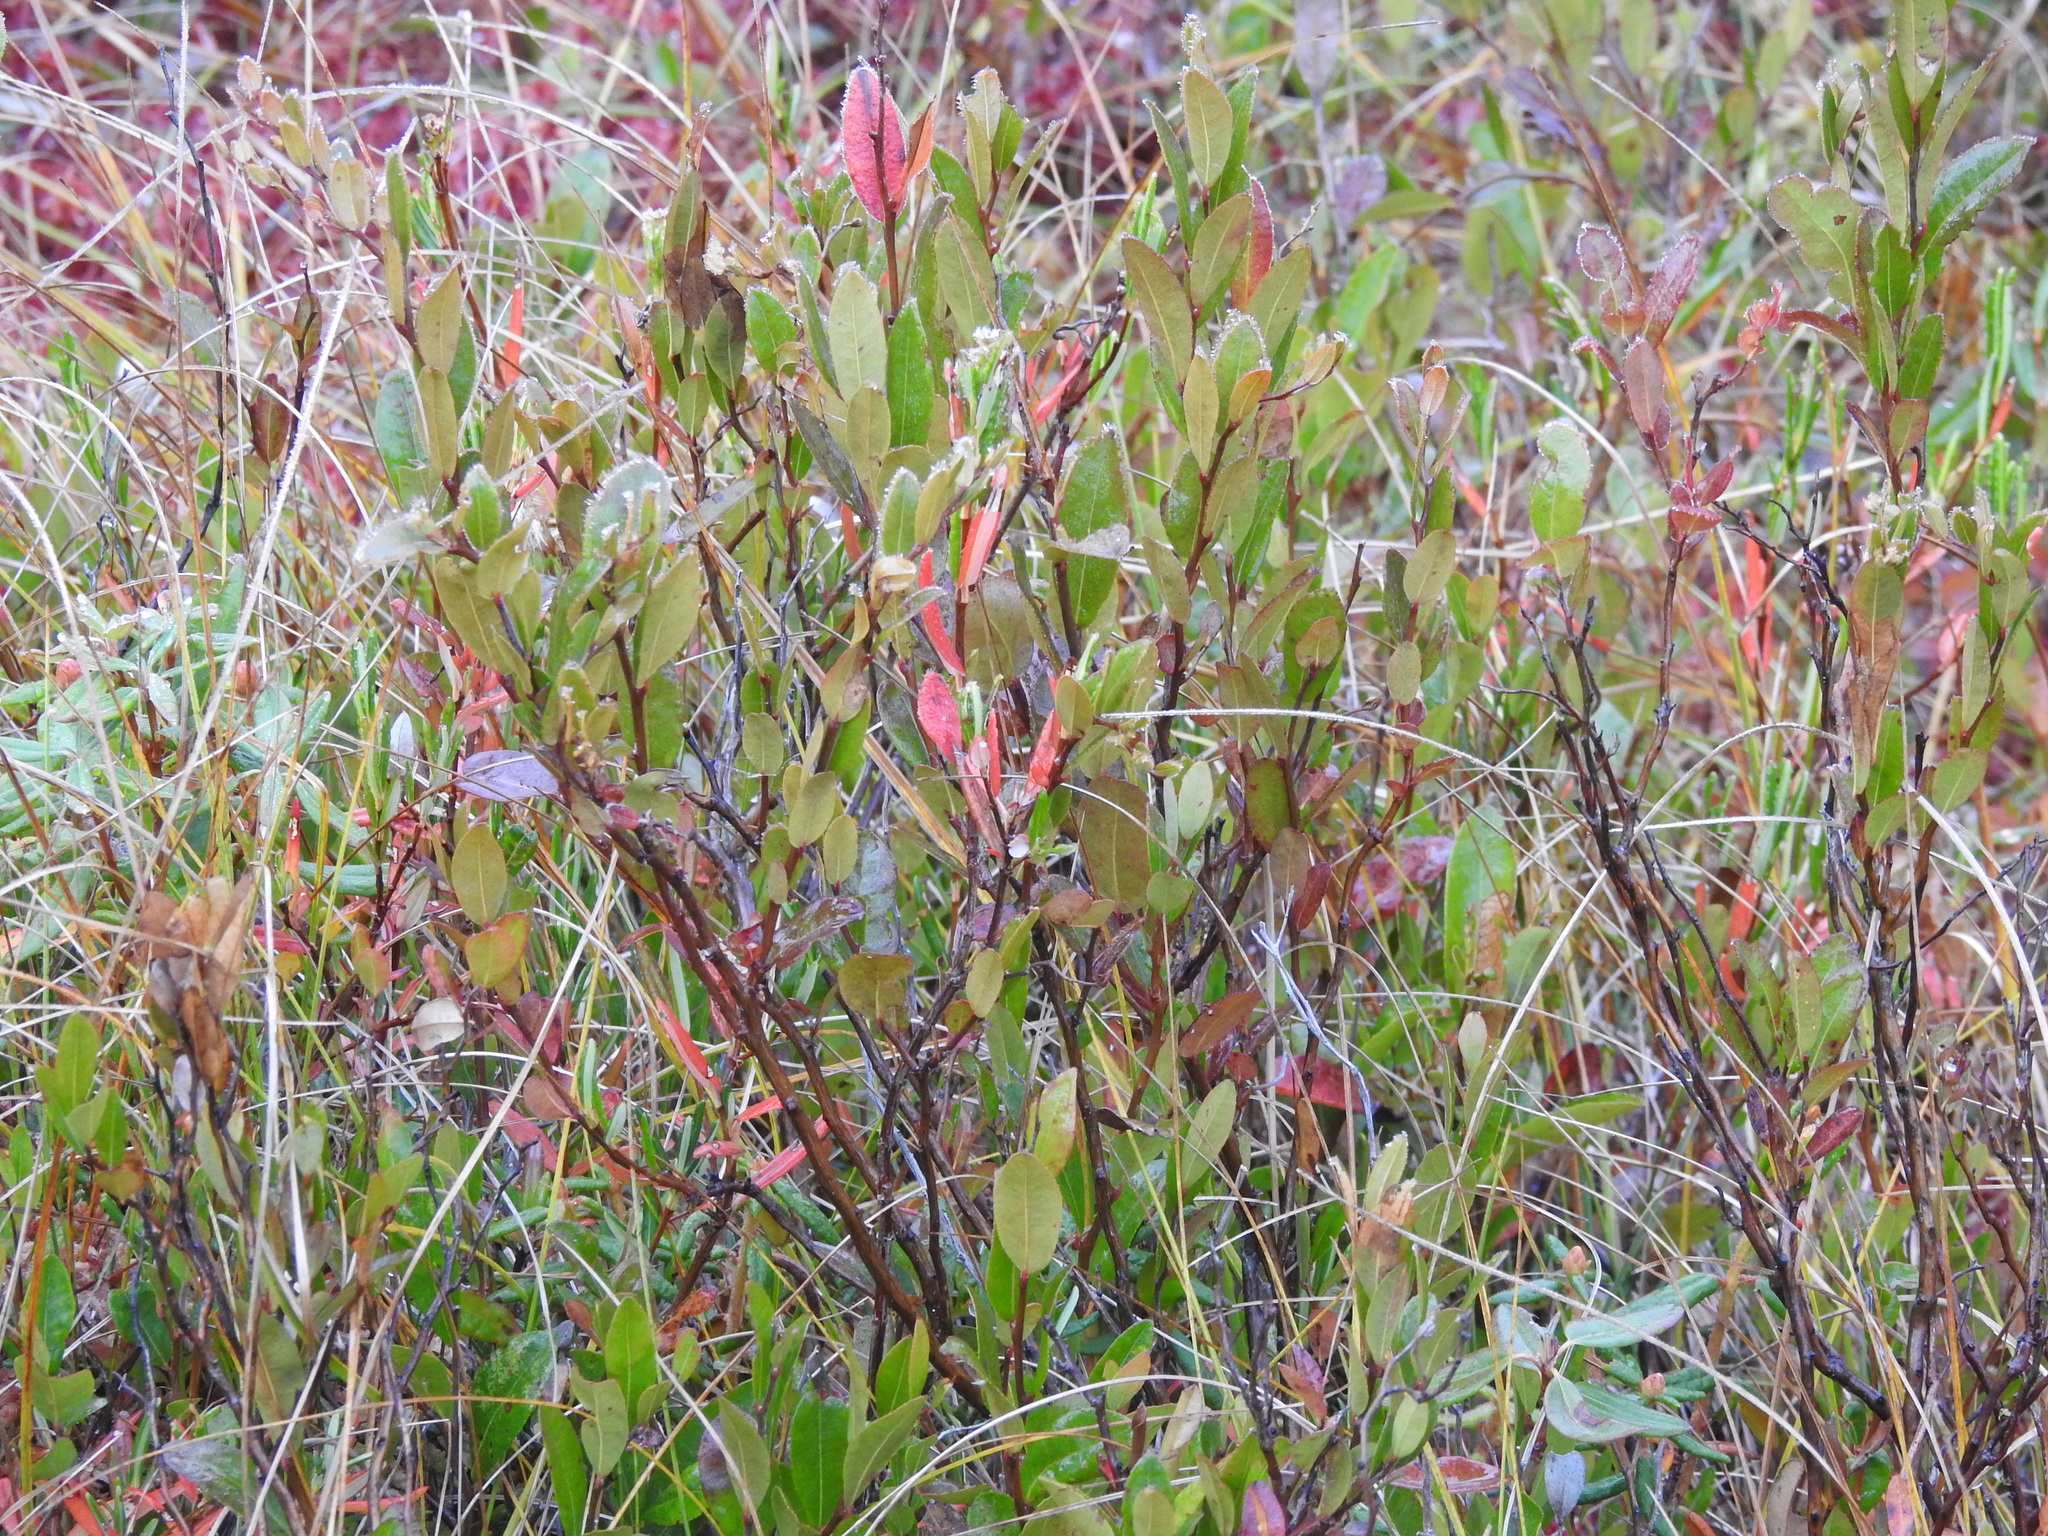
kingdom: Plantae
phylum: Tracheophyta
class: Magnoliopsida
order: Ericales
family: Ericaceae
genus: Chamaedaphne
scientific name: Chamaedaphne calyculata
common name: Leatherleaf
